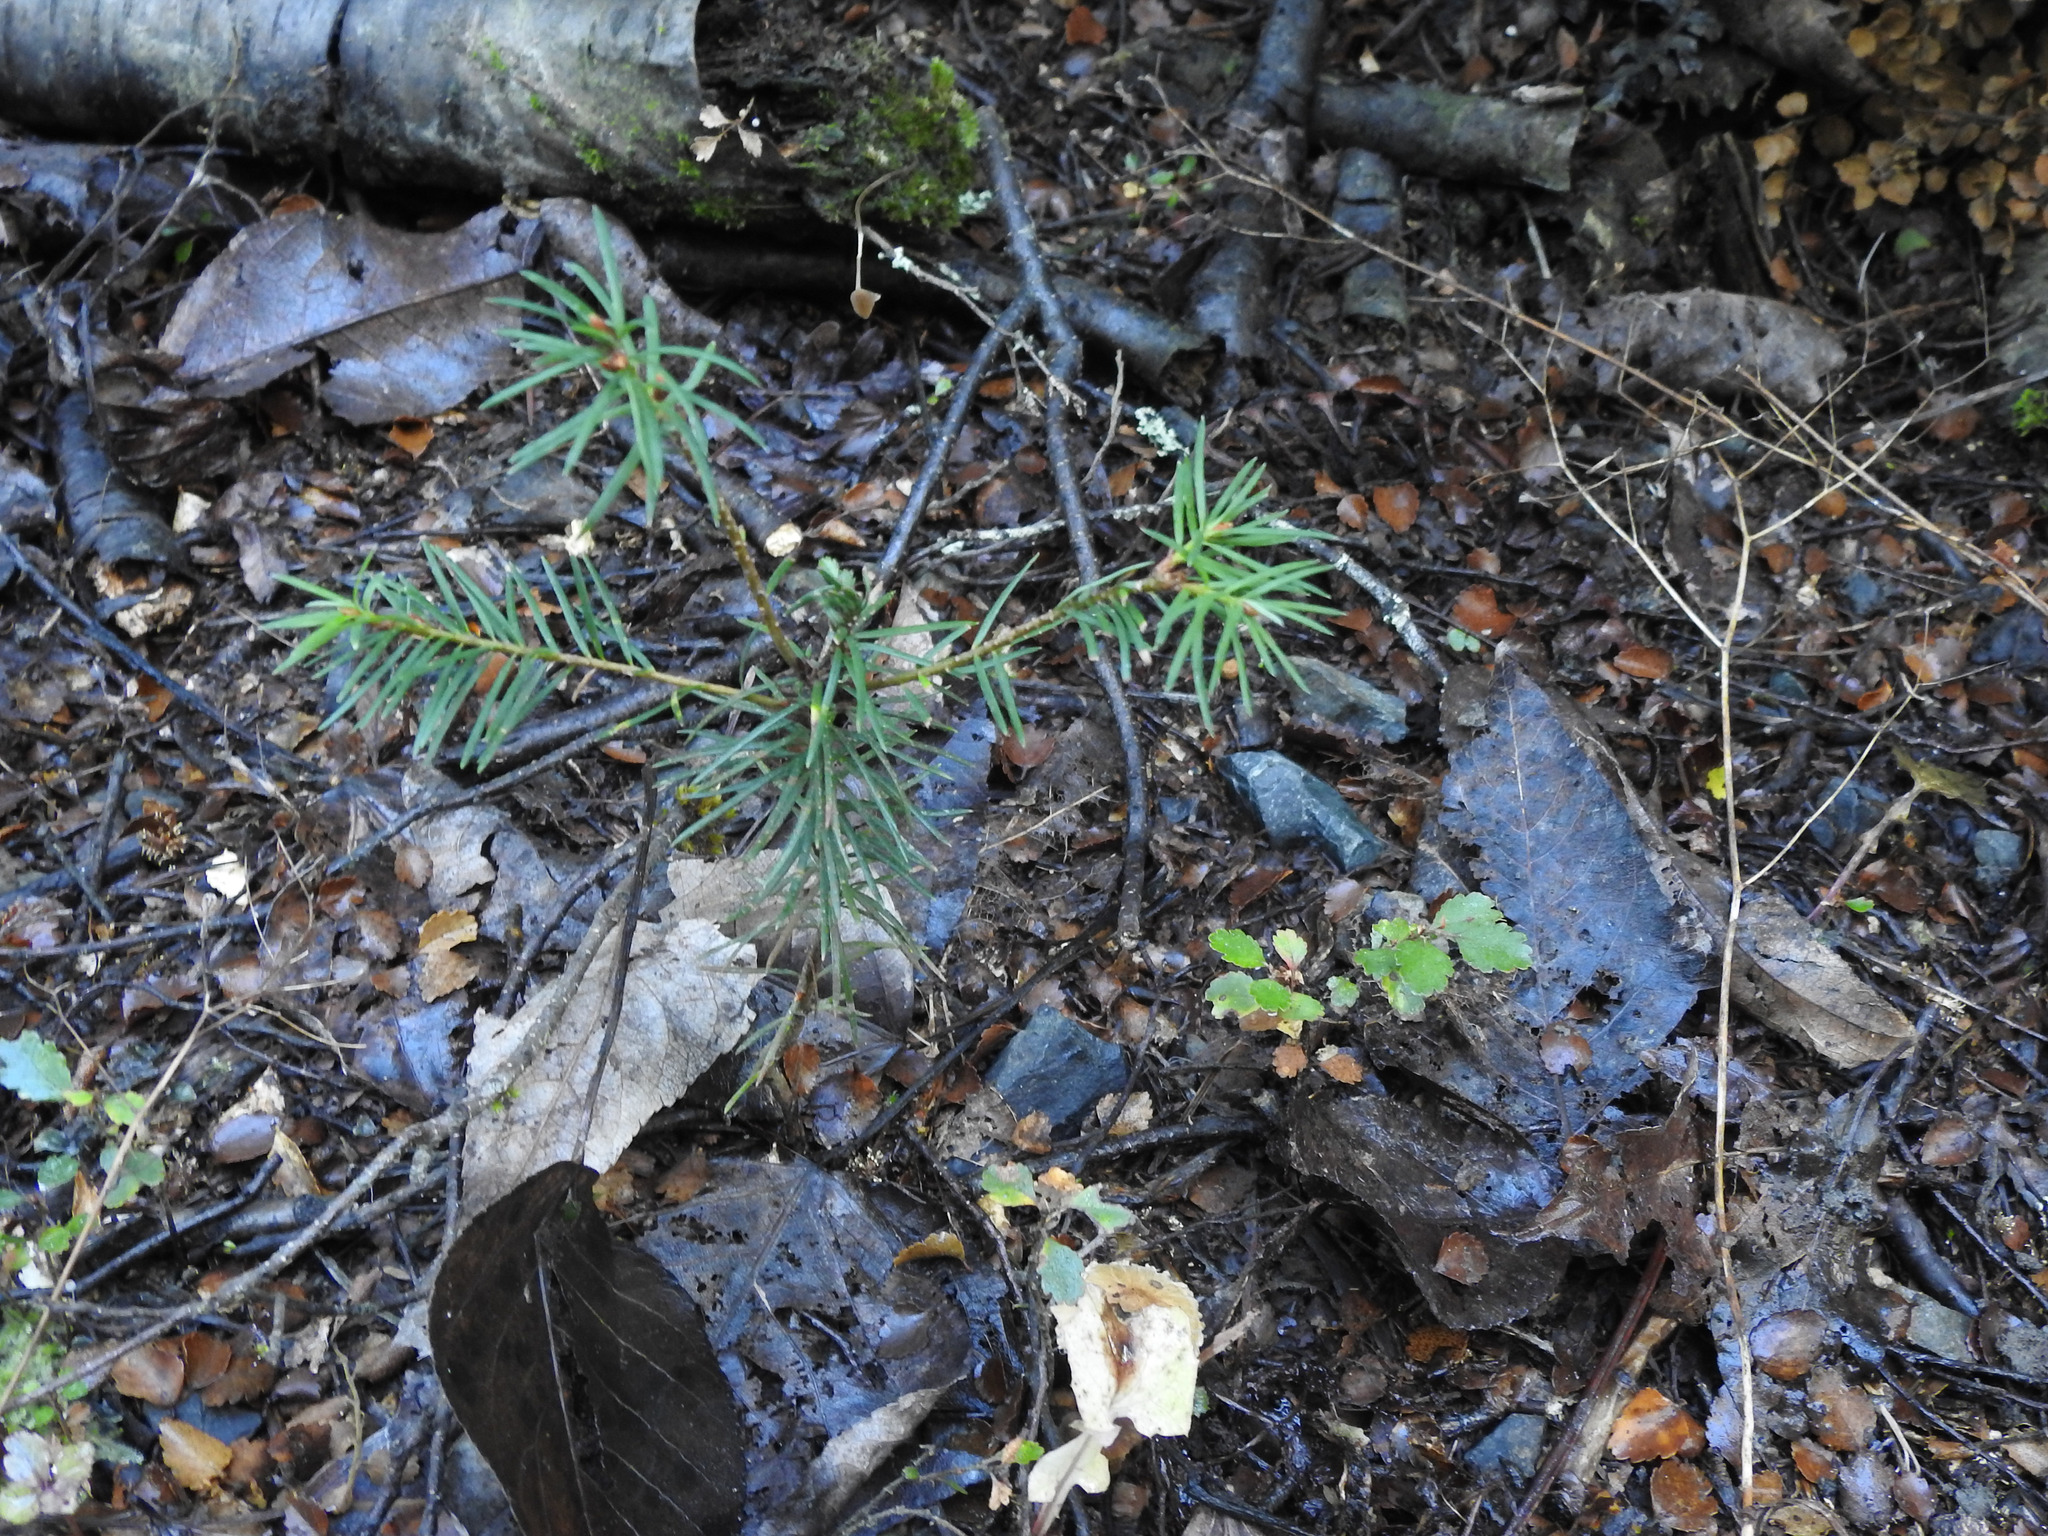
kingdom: Plantae
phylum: Tracheophyta
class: Pinopsida
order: Pinales
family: Pinaceae
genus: Pseudotsuga
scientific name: Pseudotsuga menziesii
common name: Douglas fir
